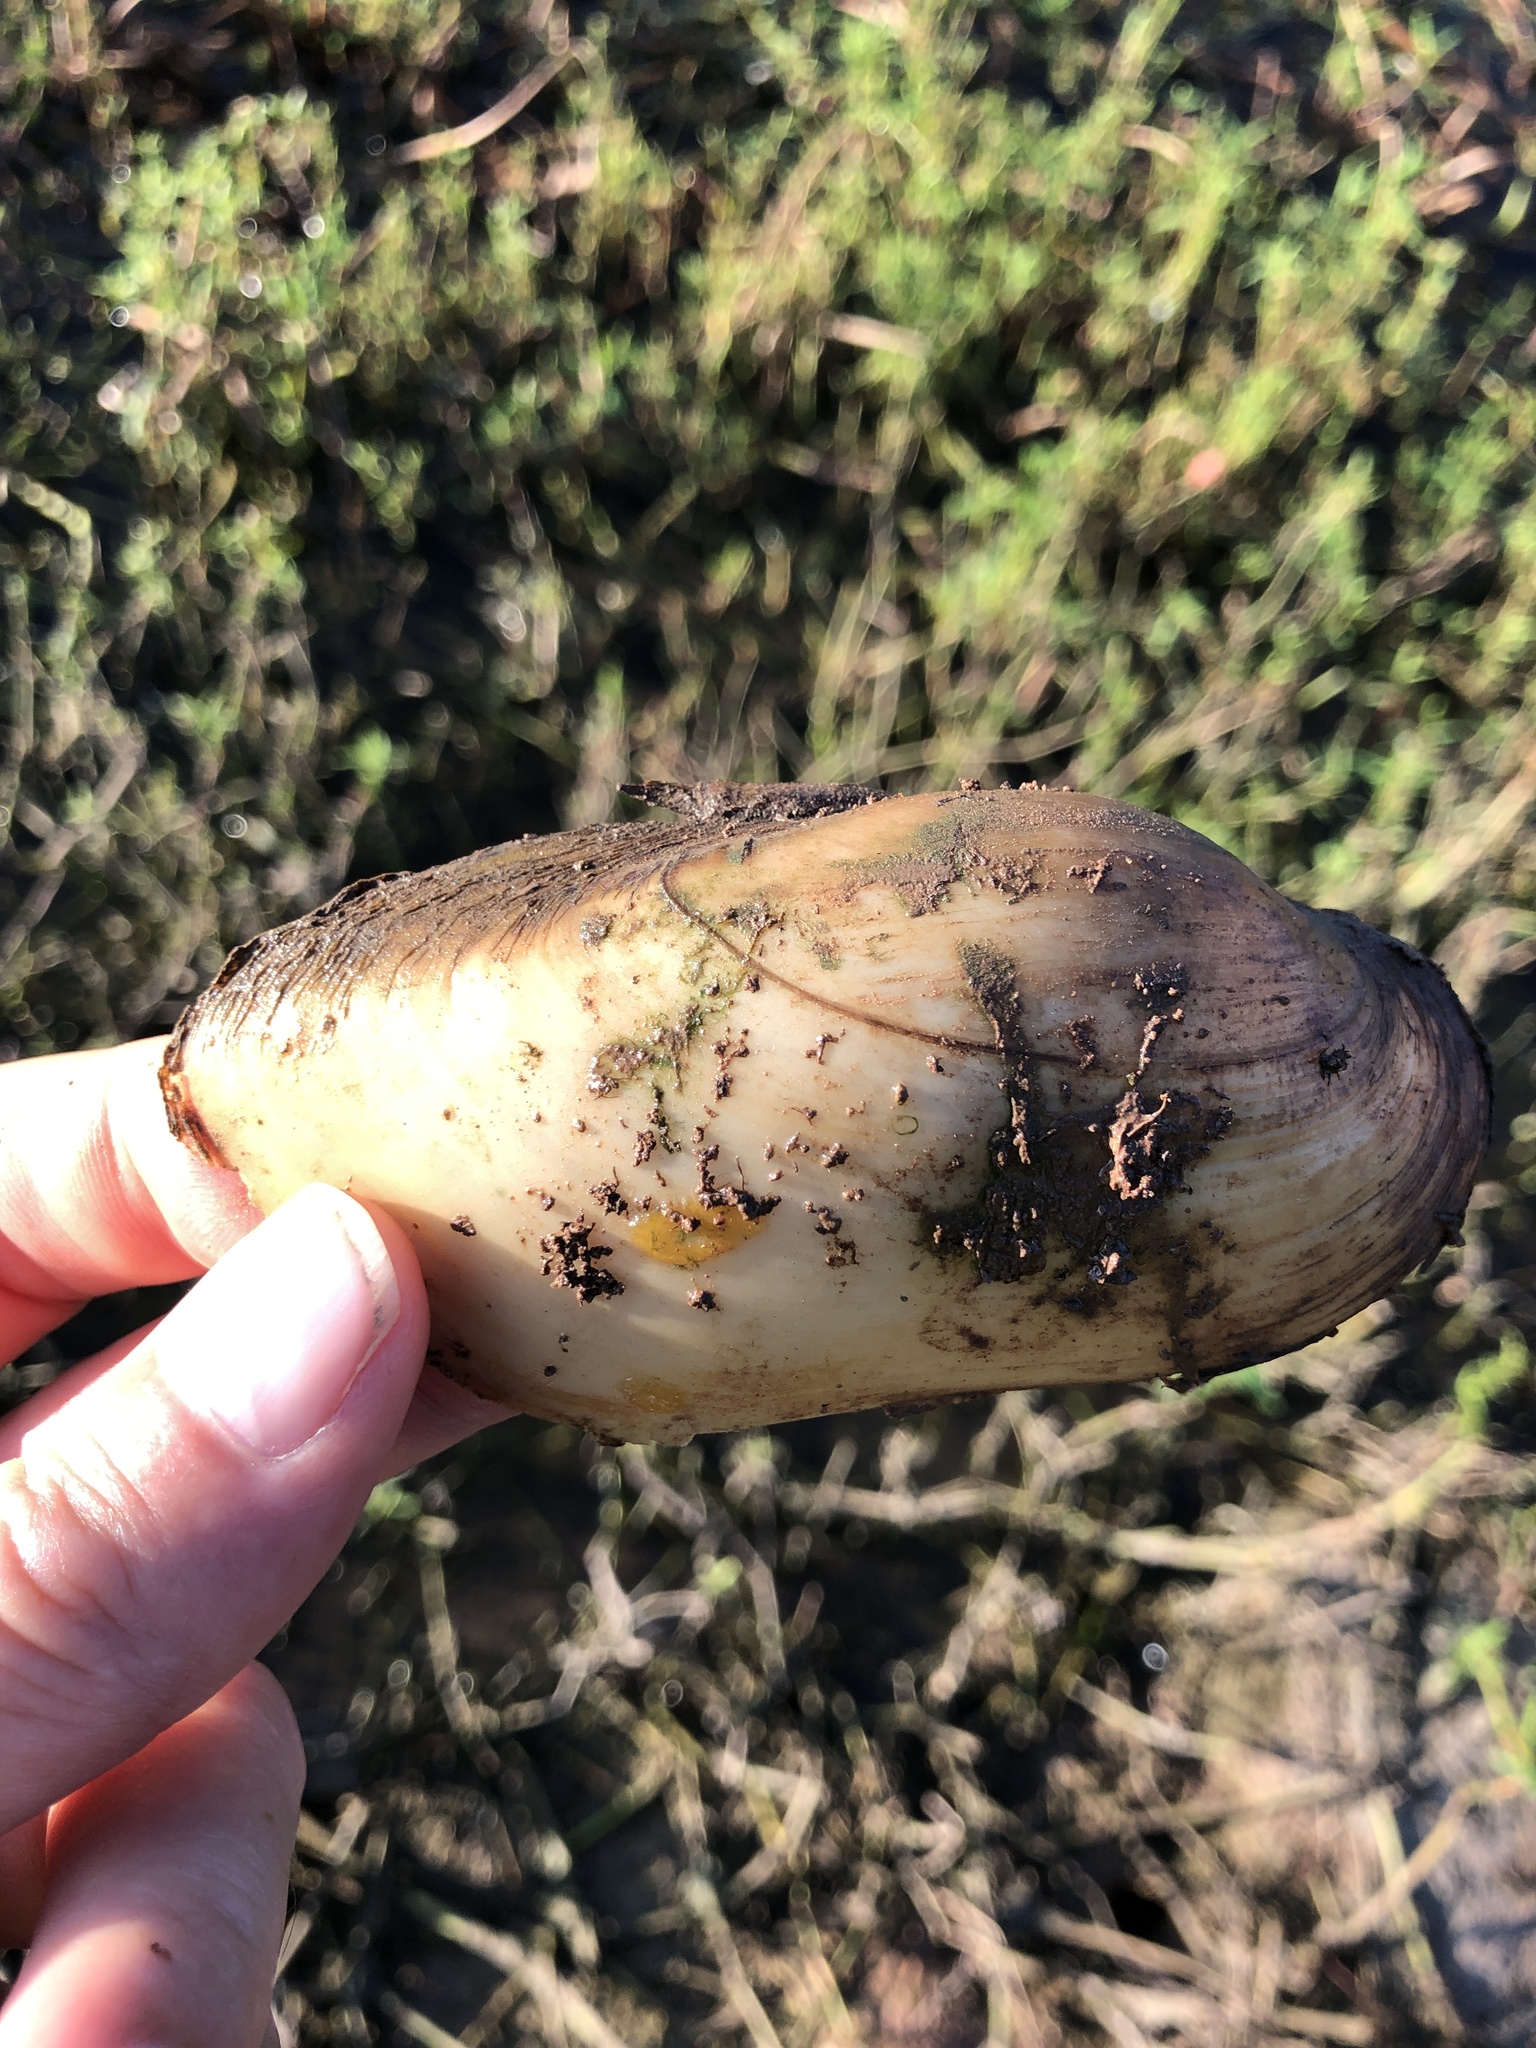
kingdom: Animalia
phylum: Mollusca
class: Bivalvia
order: Unionida
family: Unionidae
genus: Lampsilis
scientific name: Lampsilis teres
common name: Yellow sandshell
